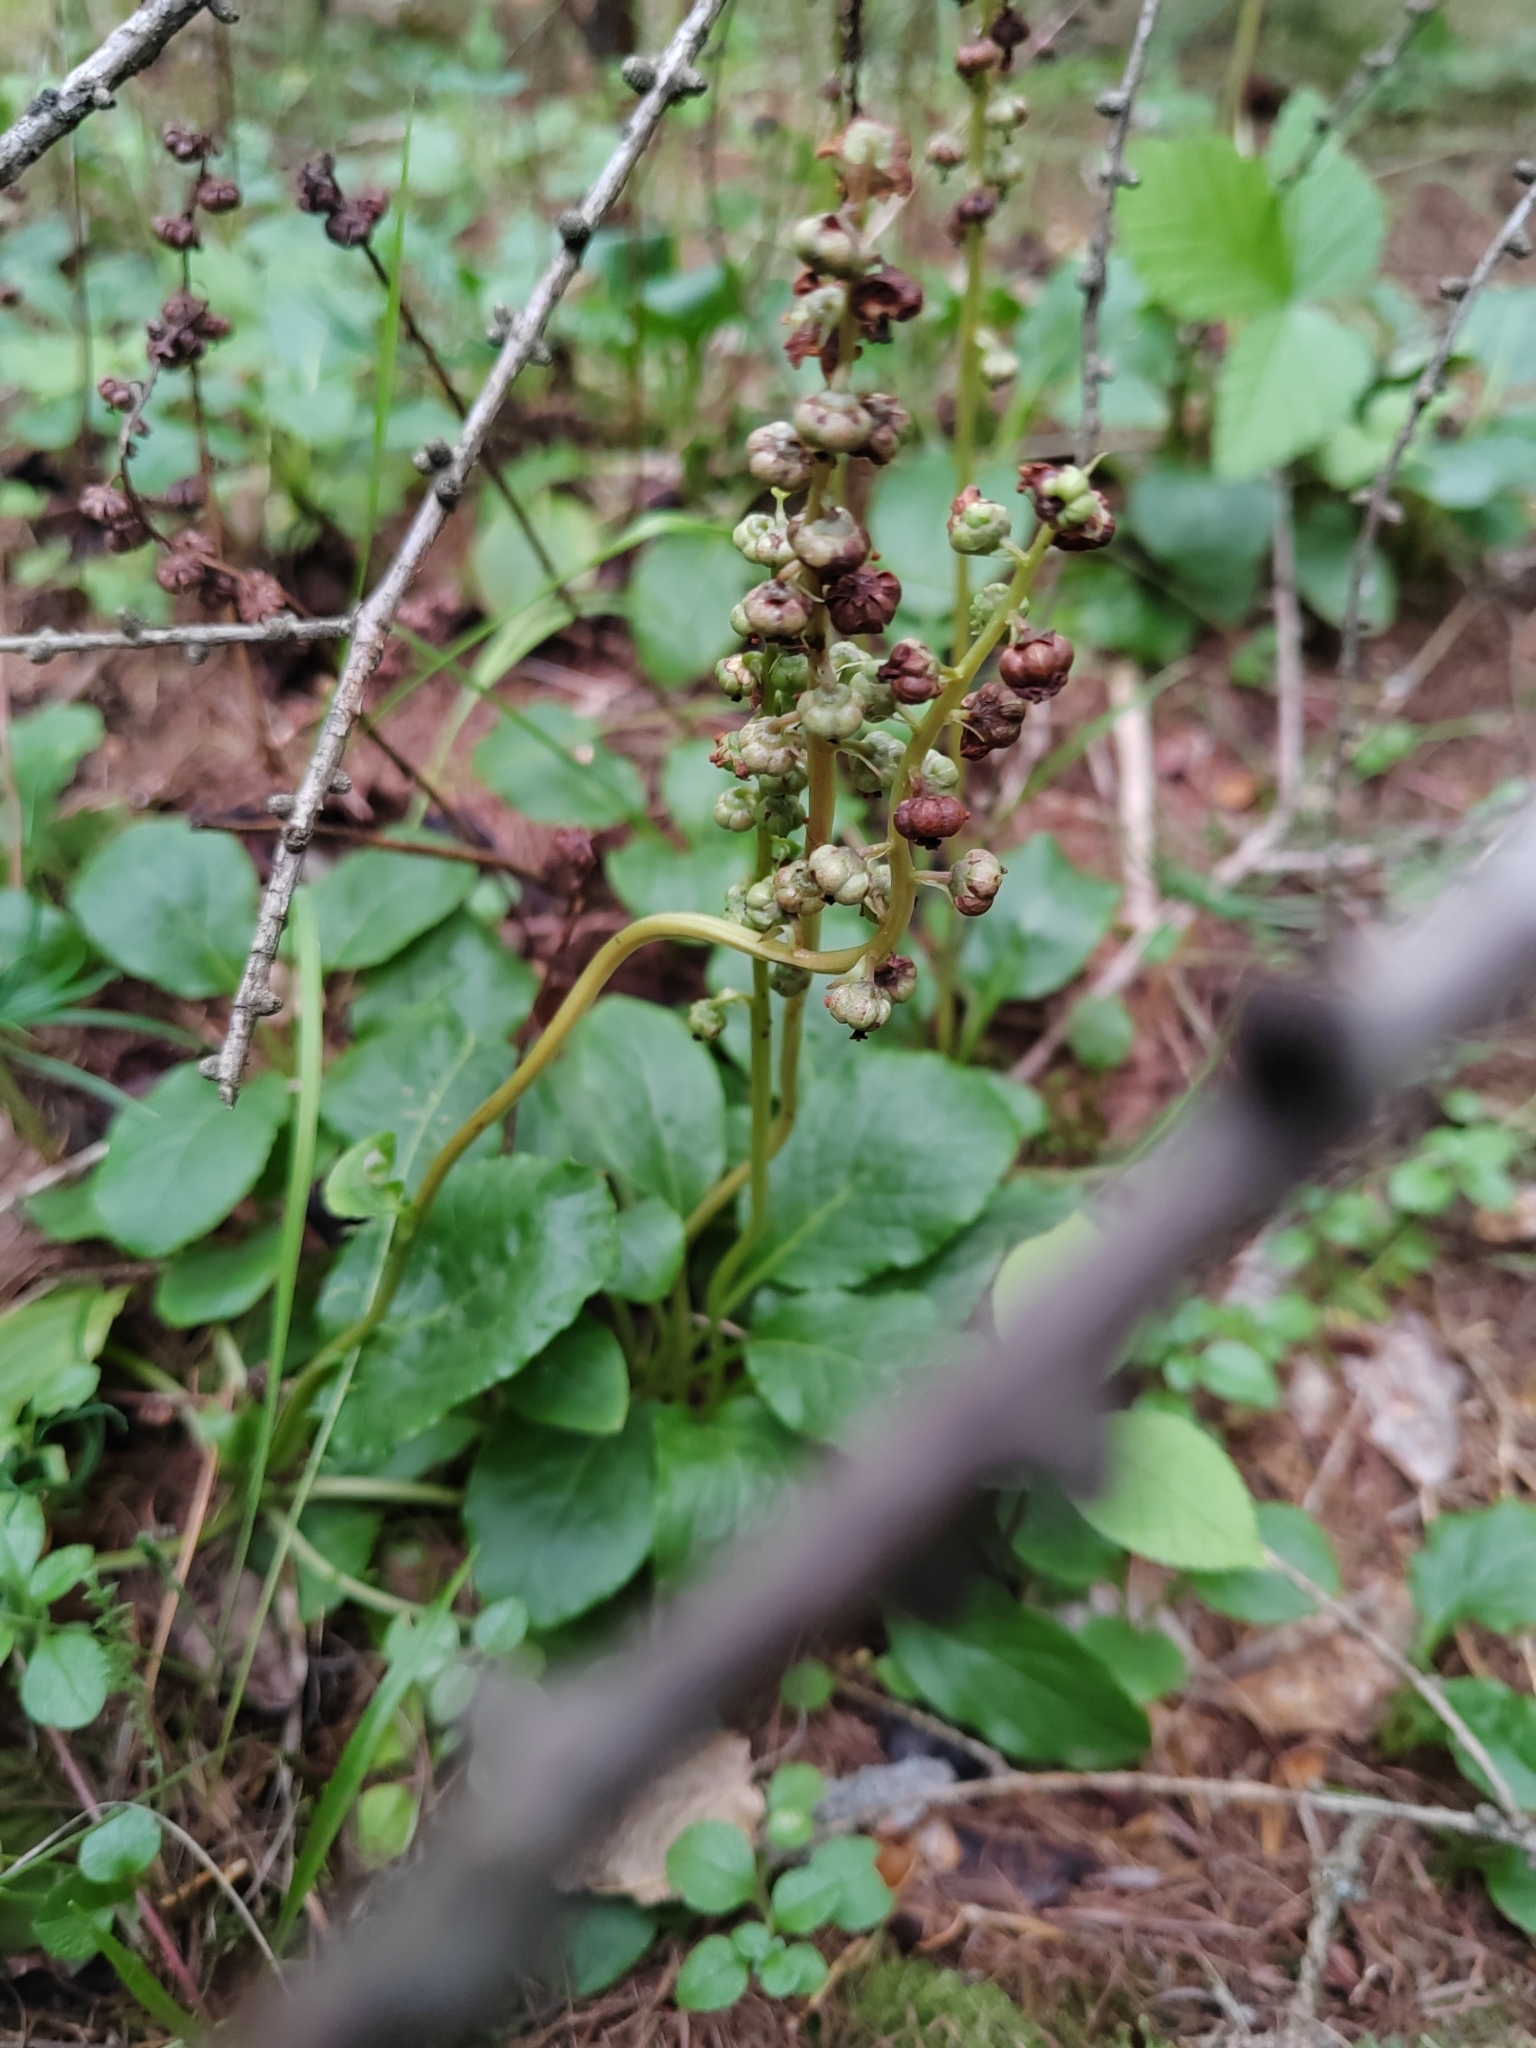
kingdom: Plantae
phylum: Tracheophyta
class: Magnoliopsida
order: Ericales
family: Ericaceae
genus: Pyrola
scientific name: Pyrola minor
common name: Common wintergreen
